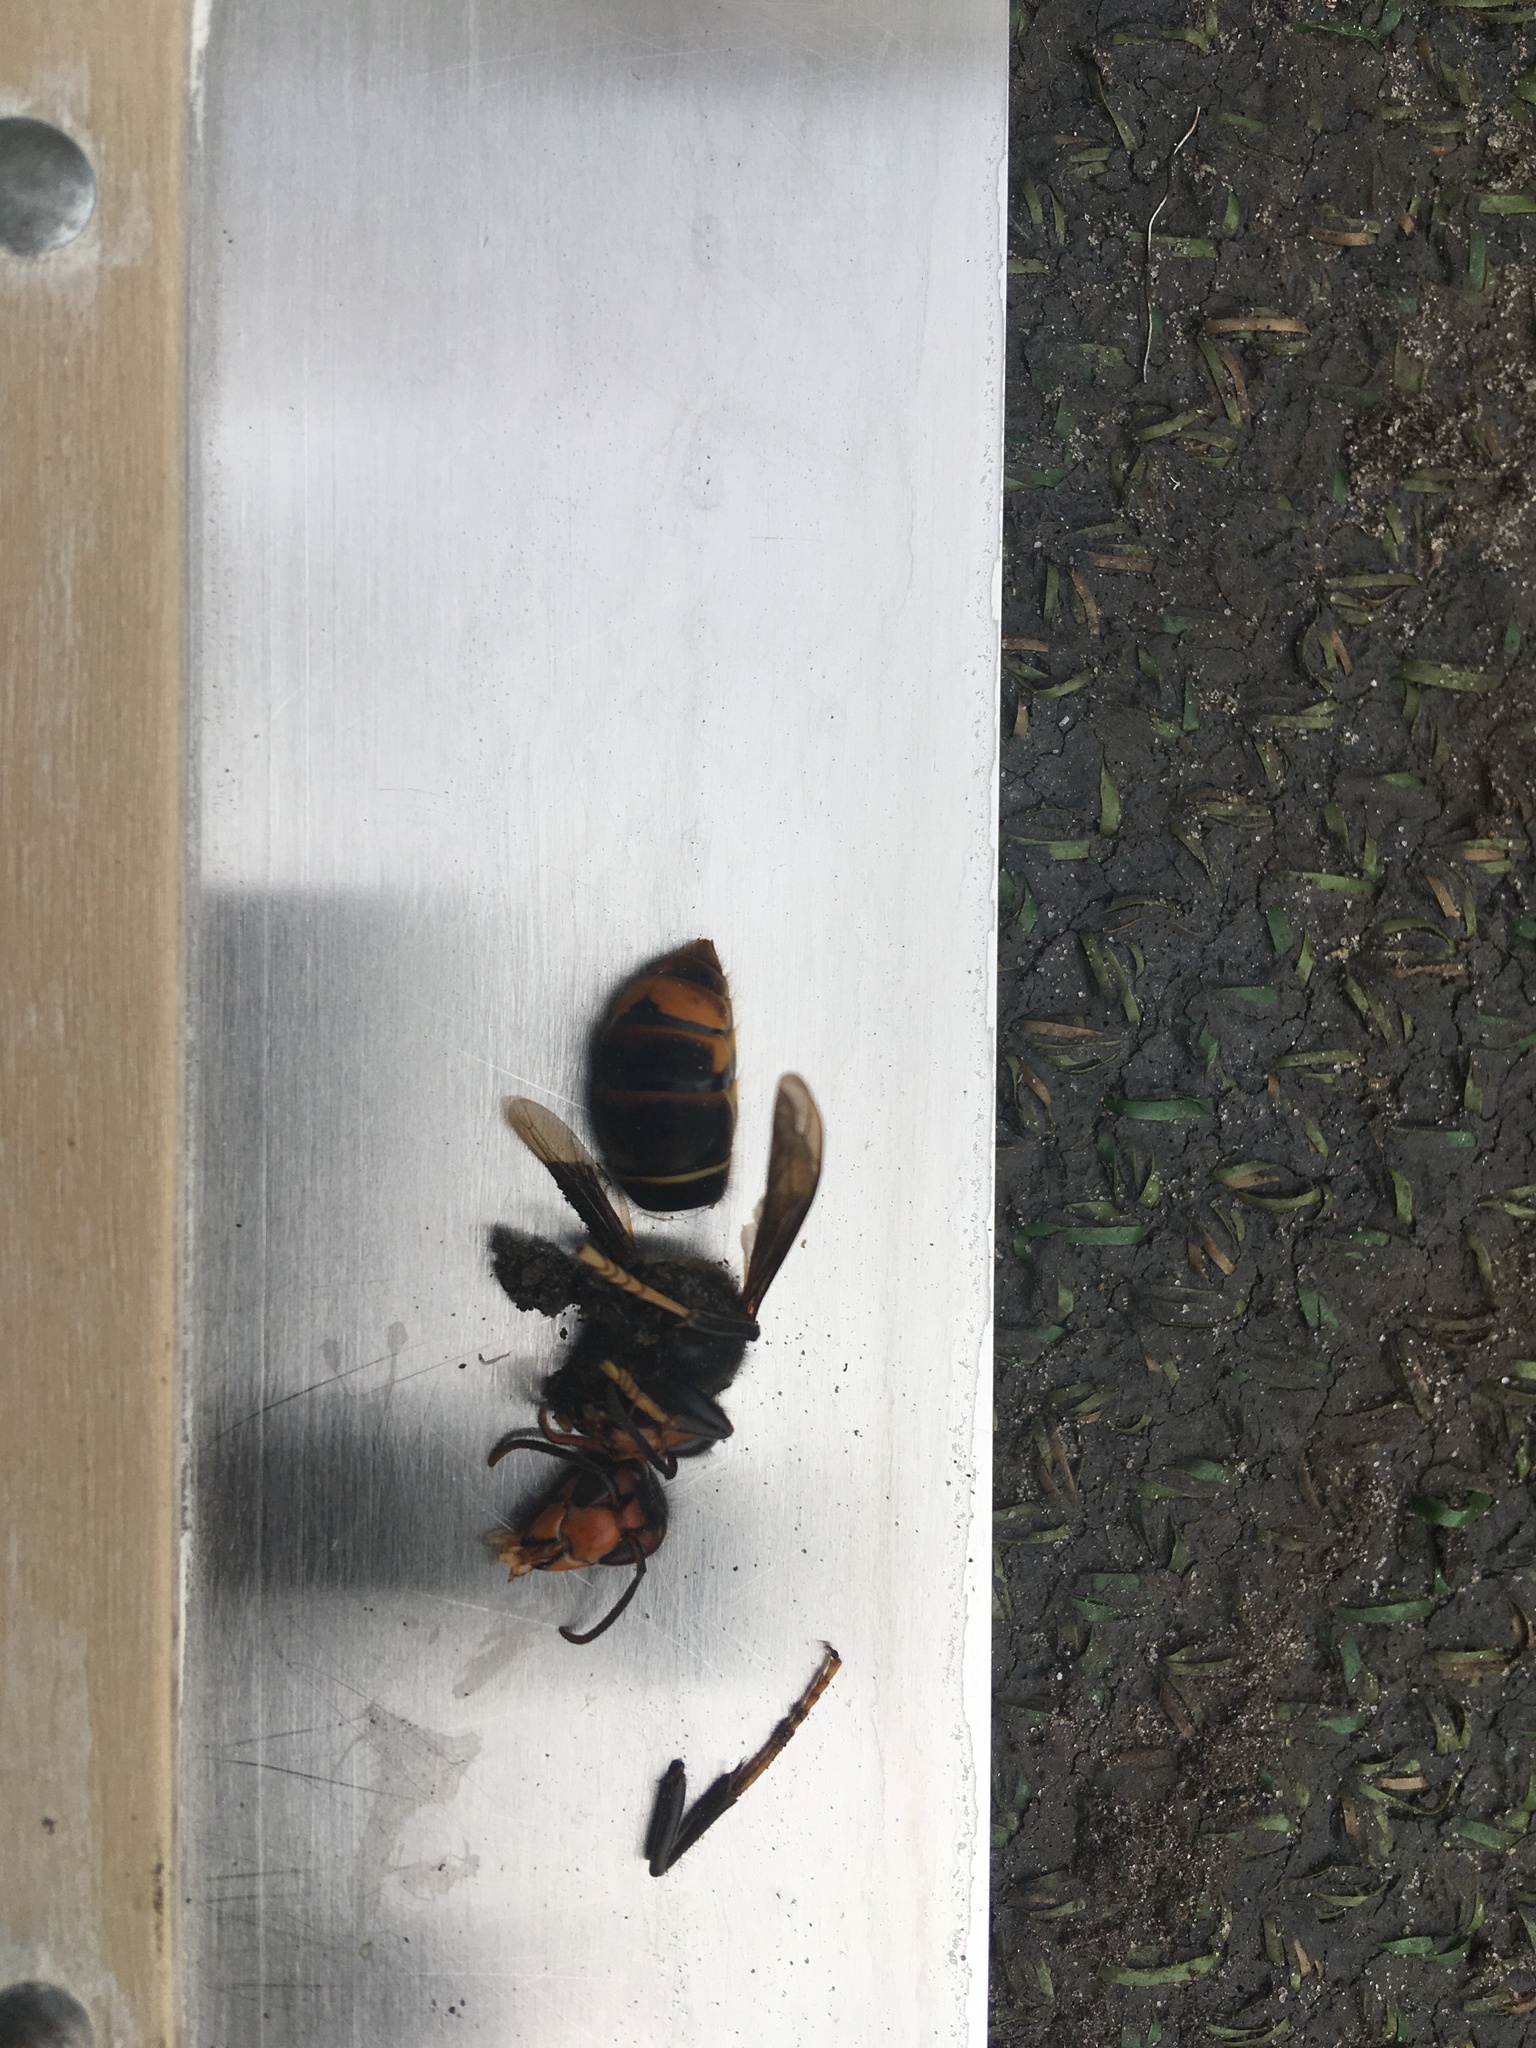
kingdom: Animalia
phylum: Arthropoda
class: Insecta
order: Hymenoptera
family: Vespidae
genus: Vespa
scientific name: Vespa velutina
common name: Asian hornet
